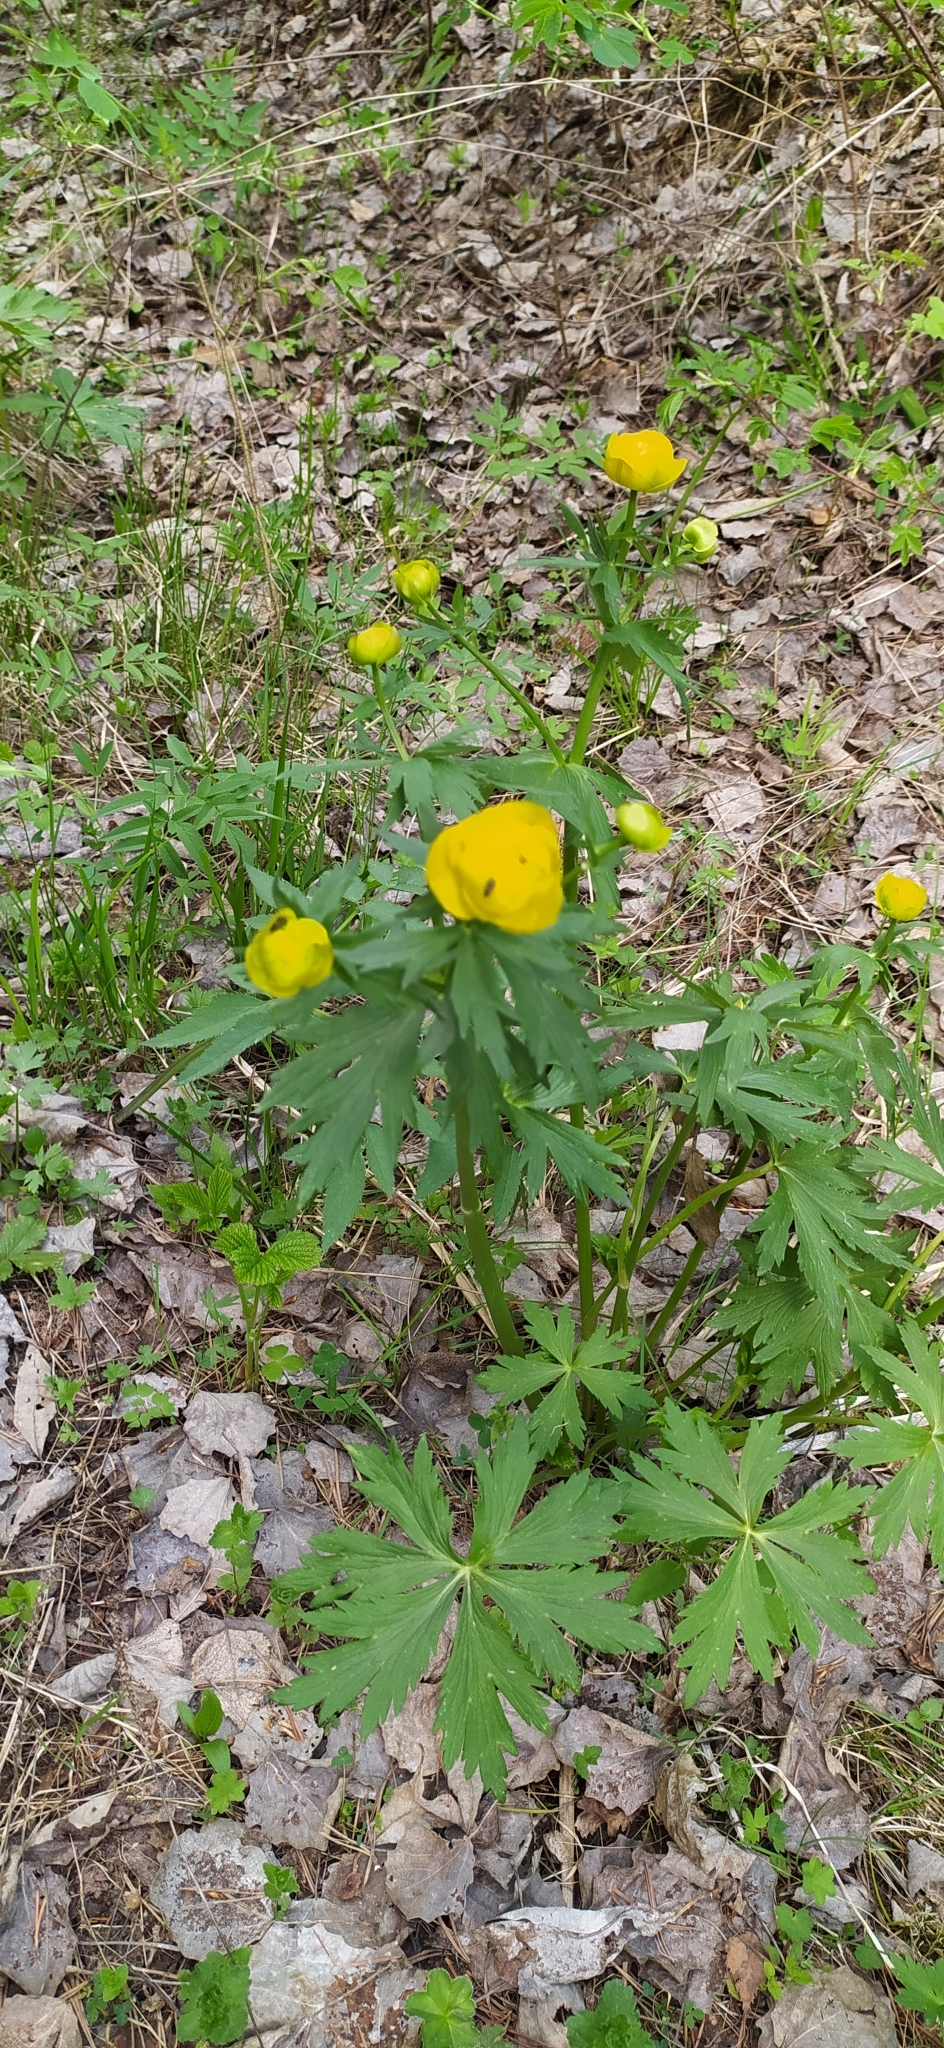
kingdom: Plantae
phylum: Tracheophyta
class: Magnoliopsida
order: Ranunculales
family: Ranunculaceae
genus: Trollius
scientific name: Trollius europaeus
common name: European globeflower
